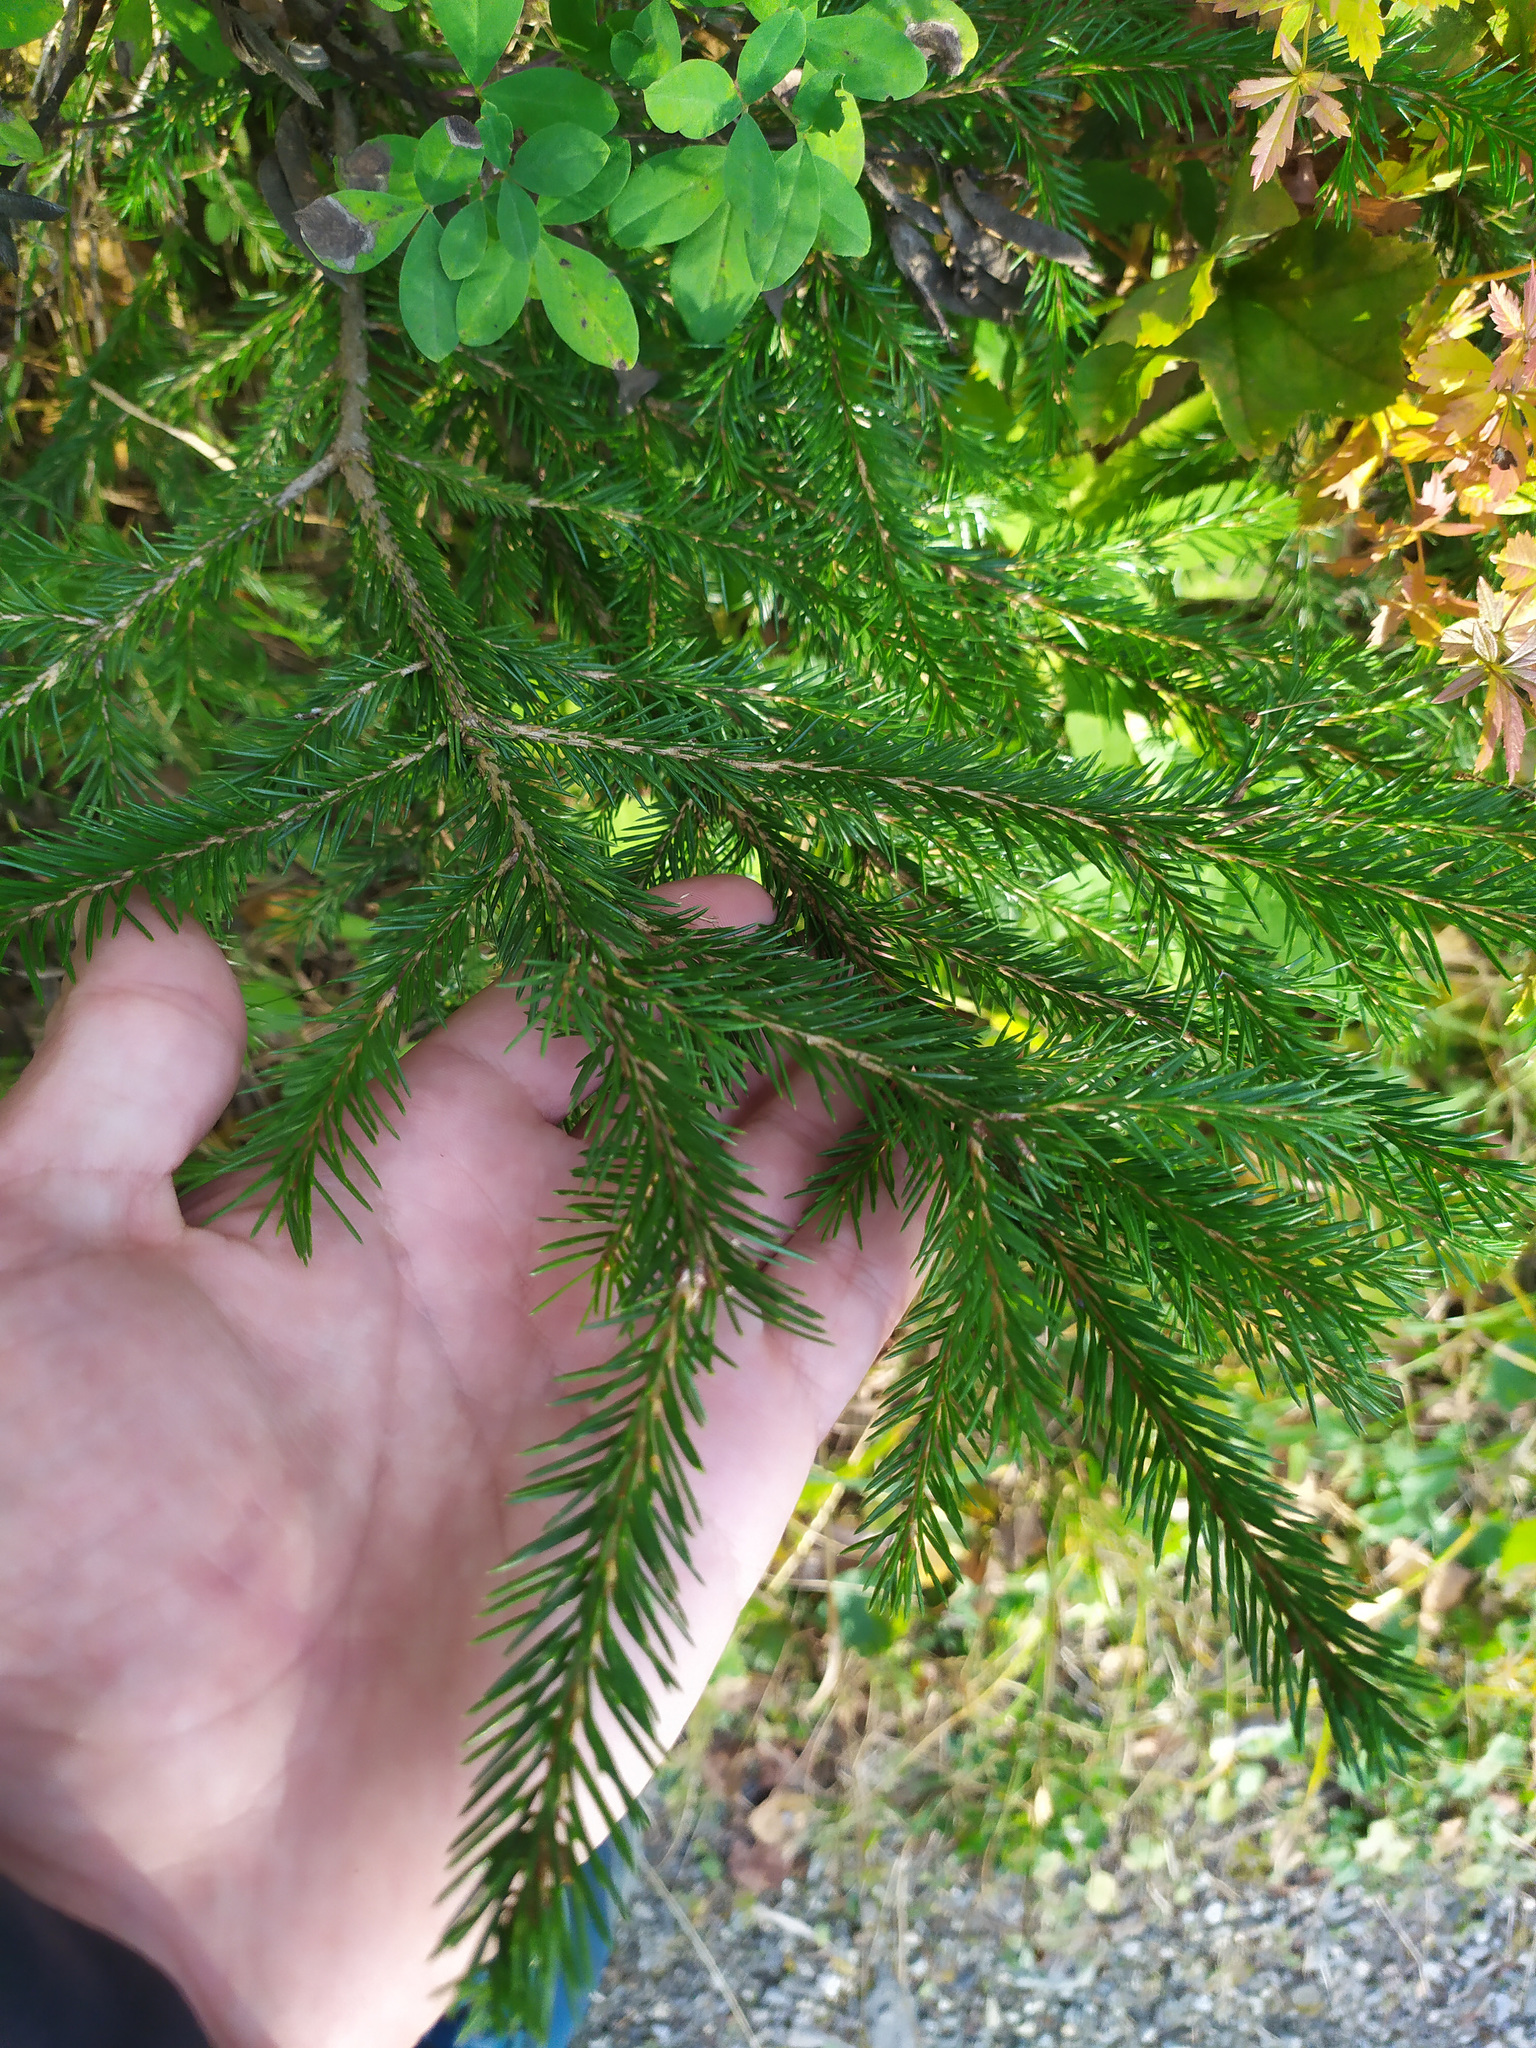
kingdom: Plantae
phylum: Tracheophyta
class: Pinopsida
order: Pinales
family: Pinaceae
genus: Picea
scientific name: Picea
